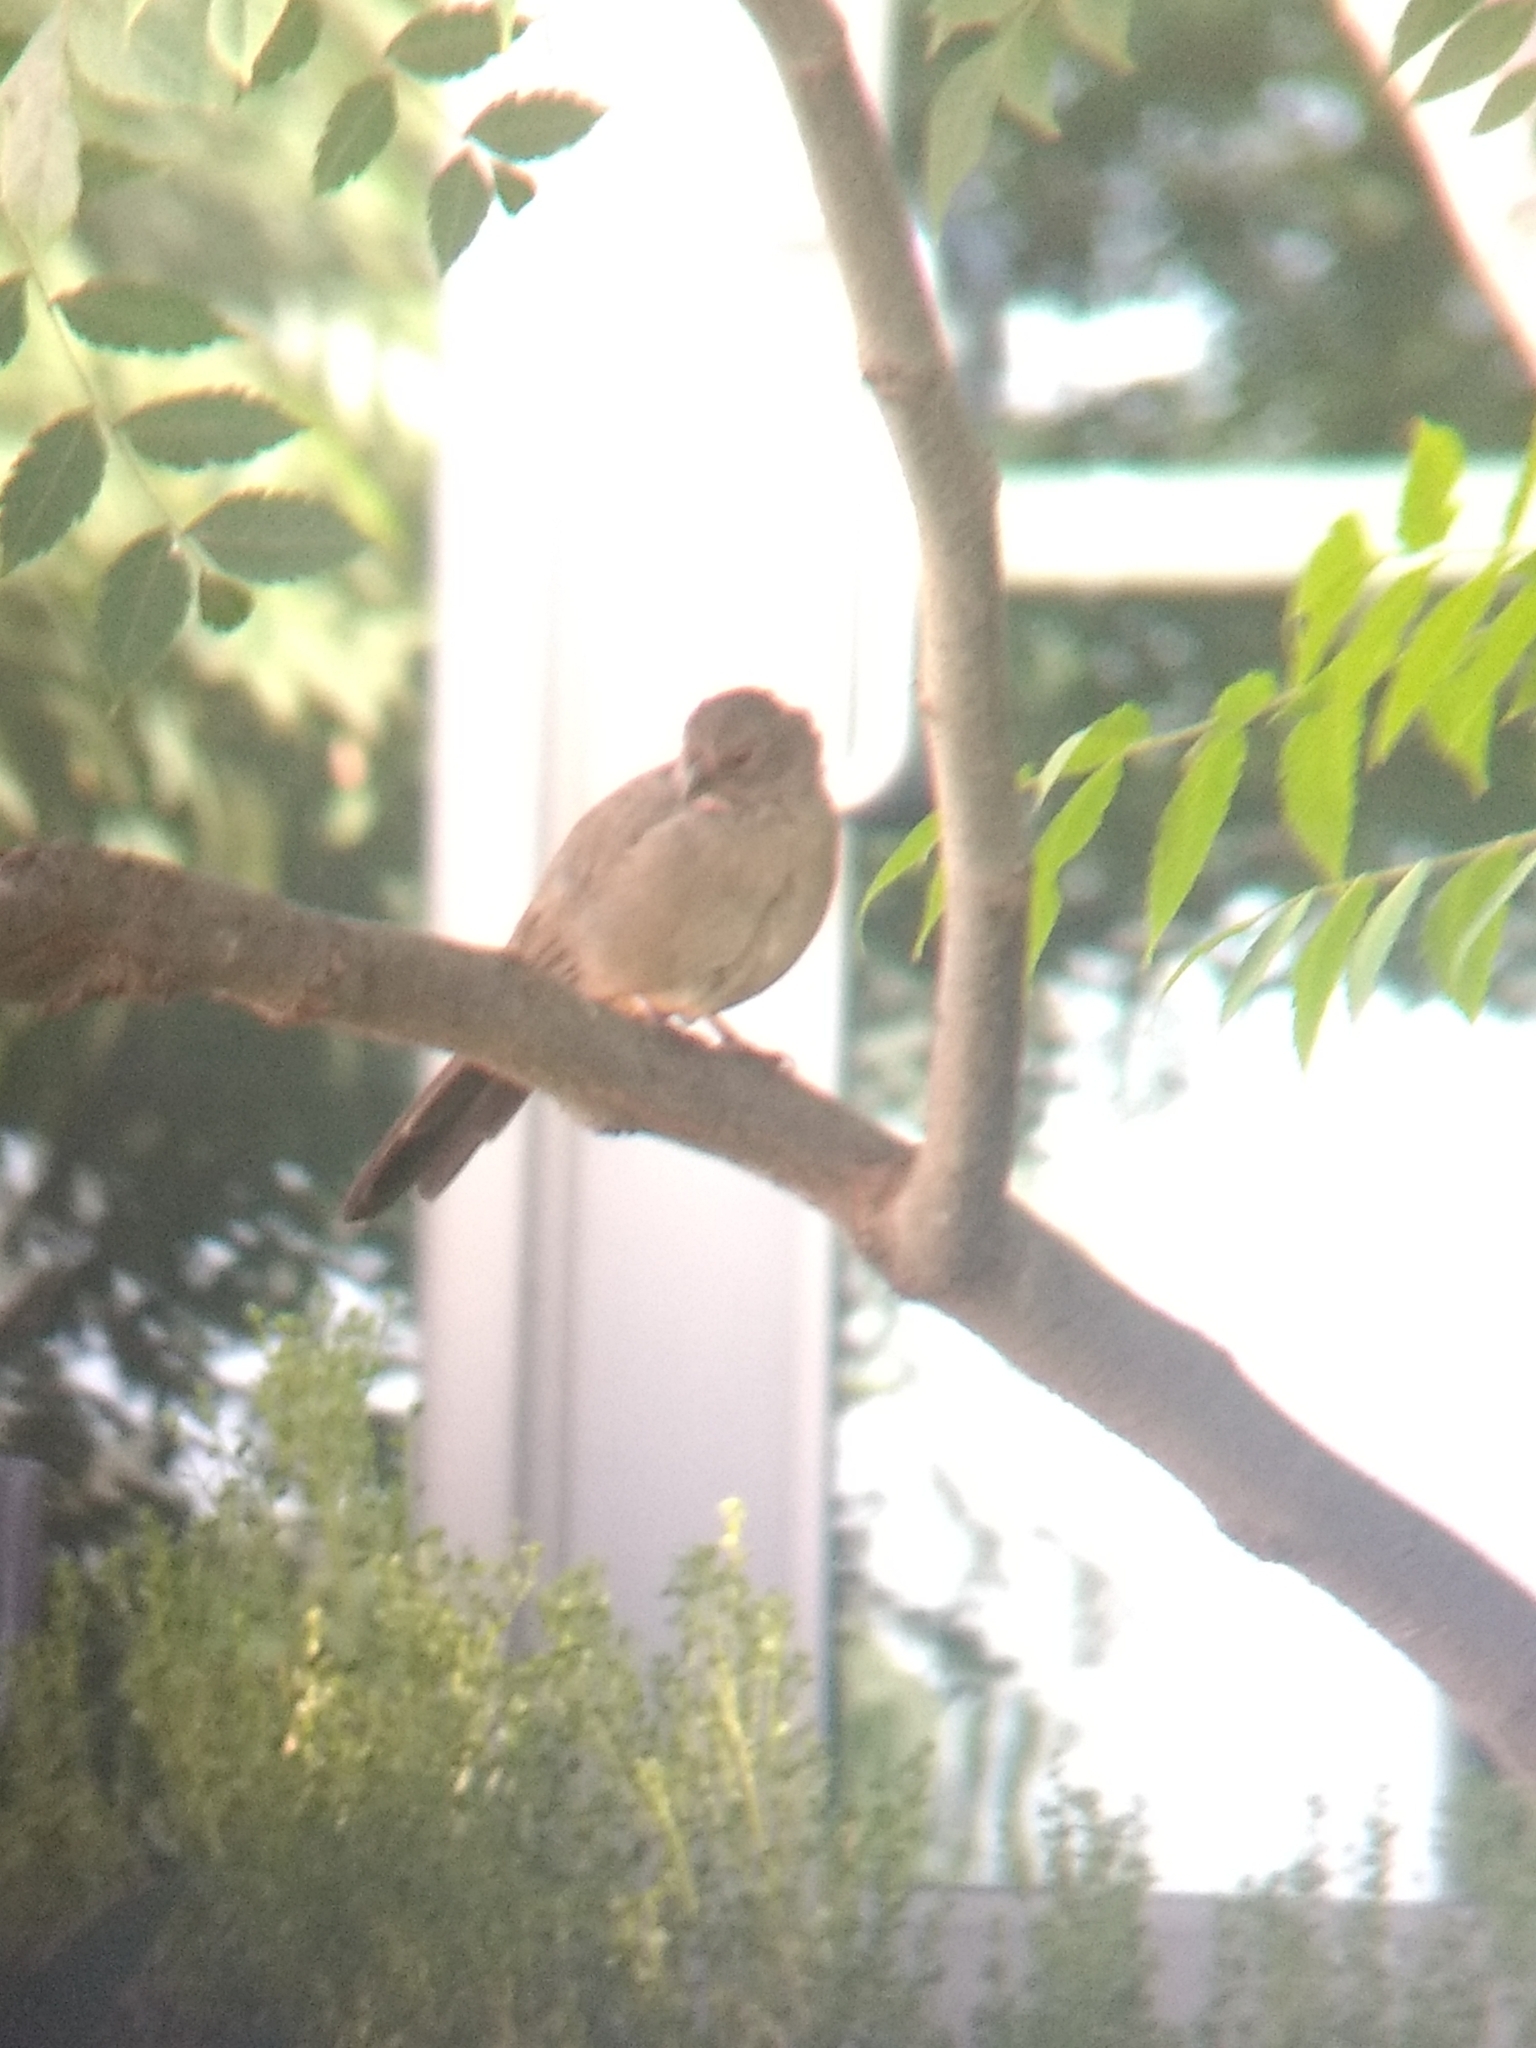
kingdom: Animalia
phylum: Chordata
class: Aves
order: Passeriformes
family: Passerellidae
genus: Melozone
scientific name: Melozone crissalis
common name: California towhee
